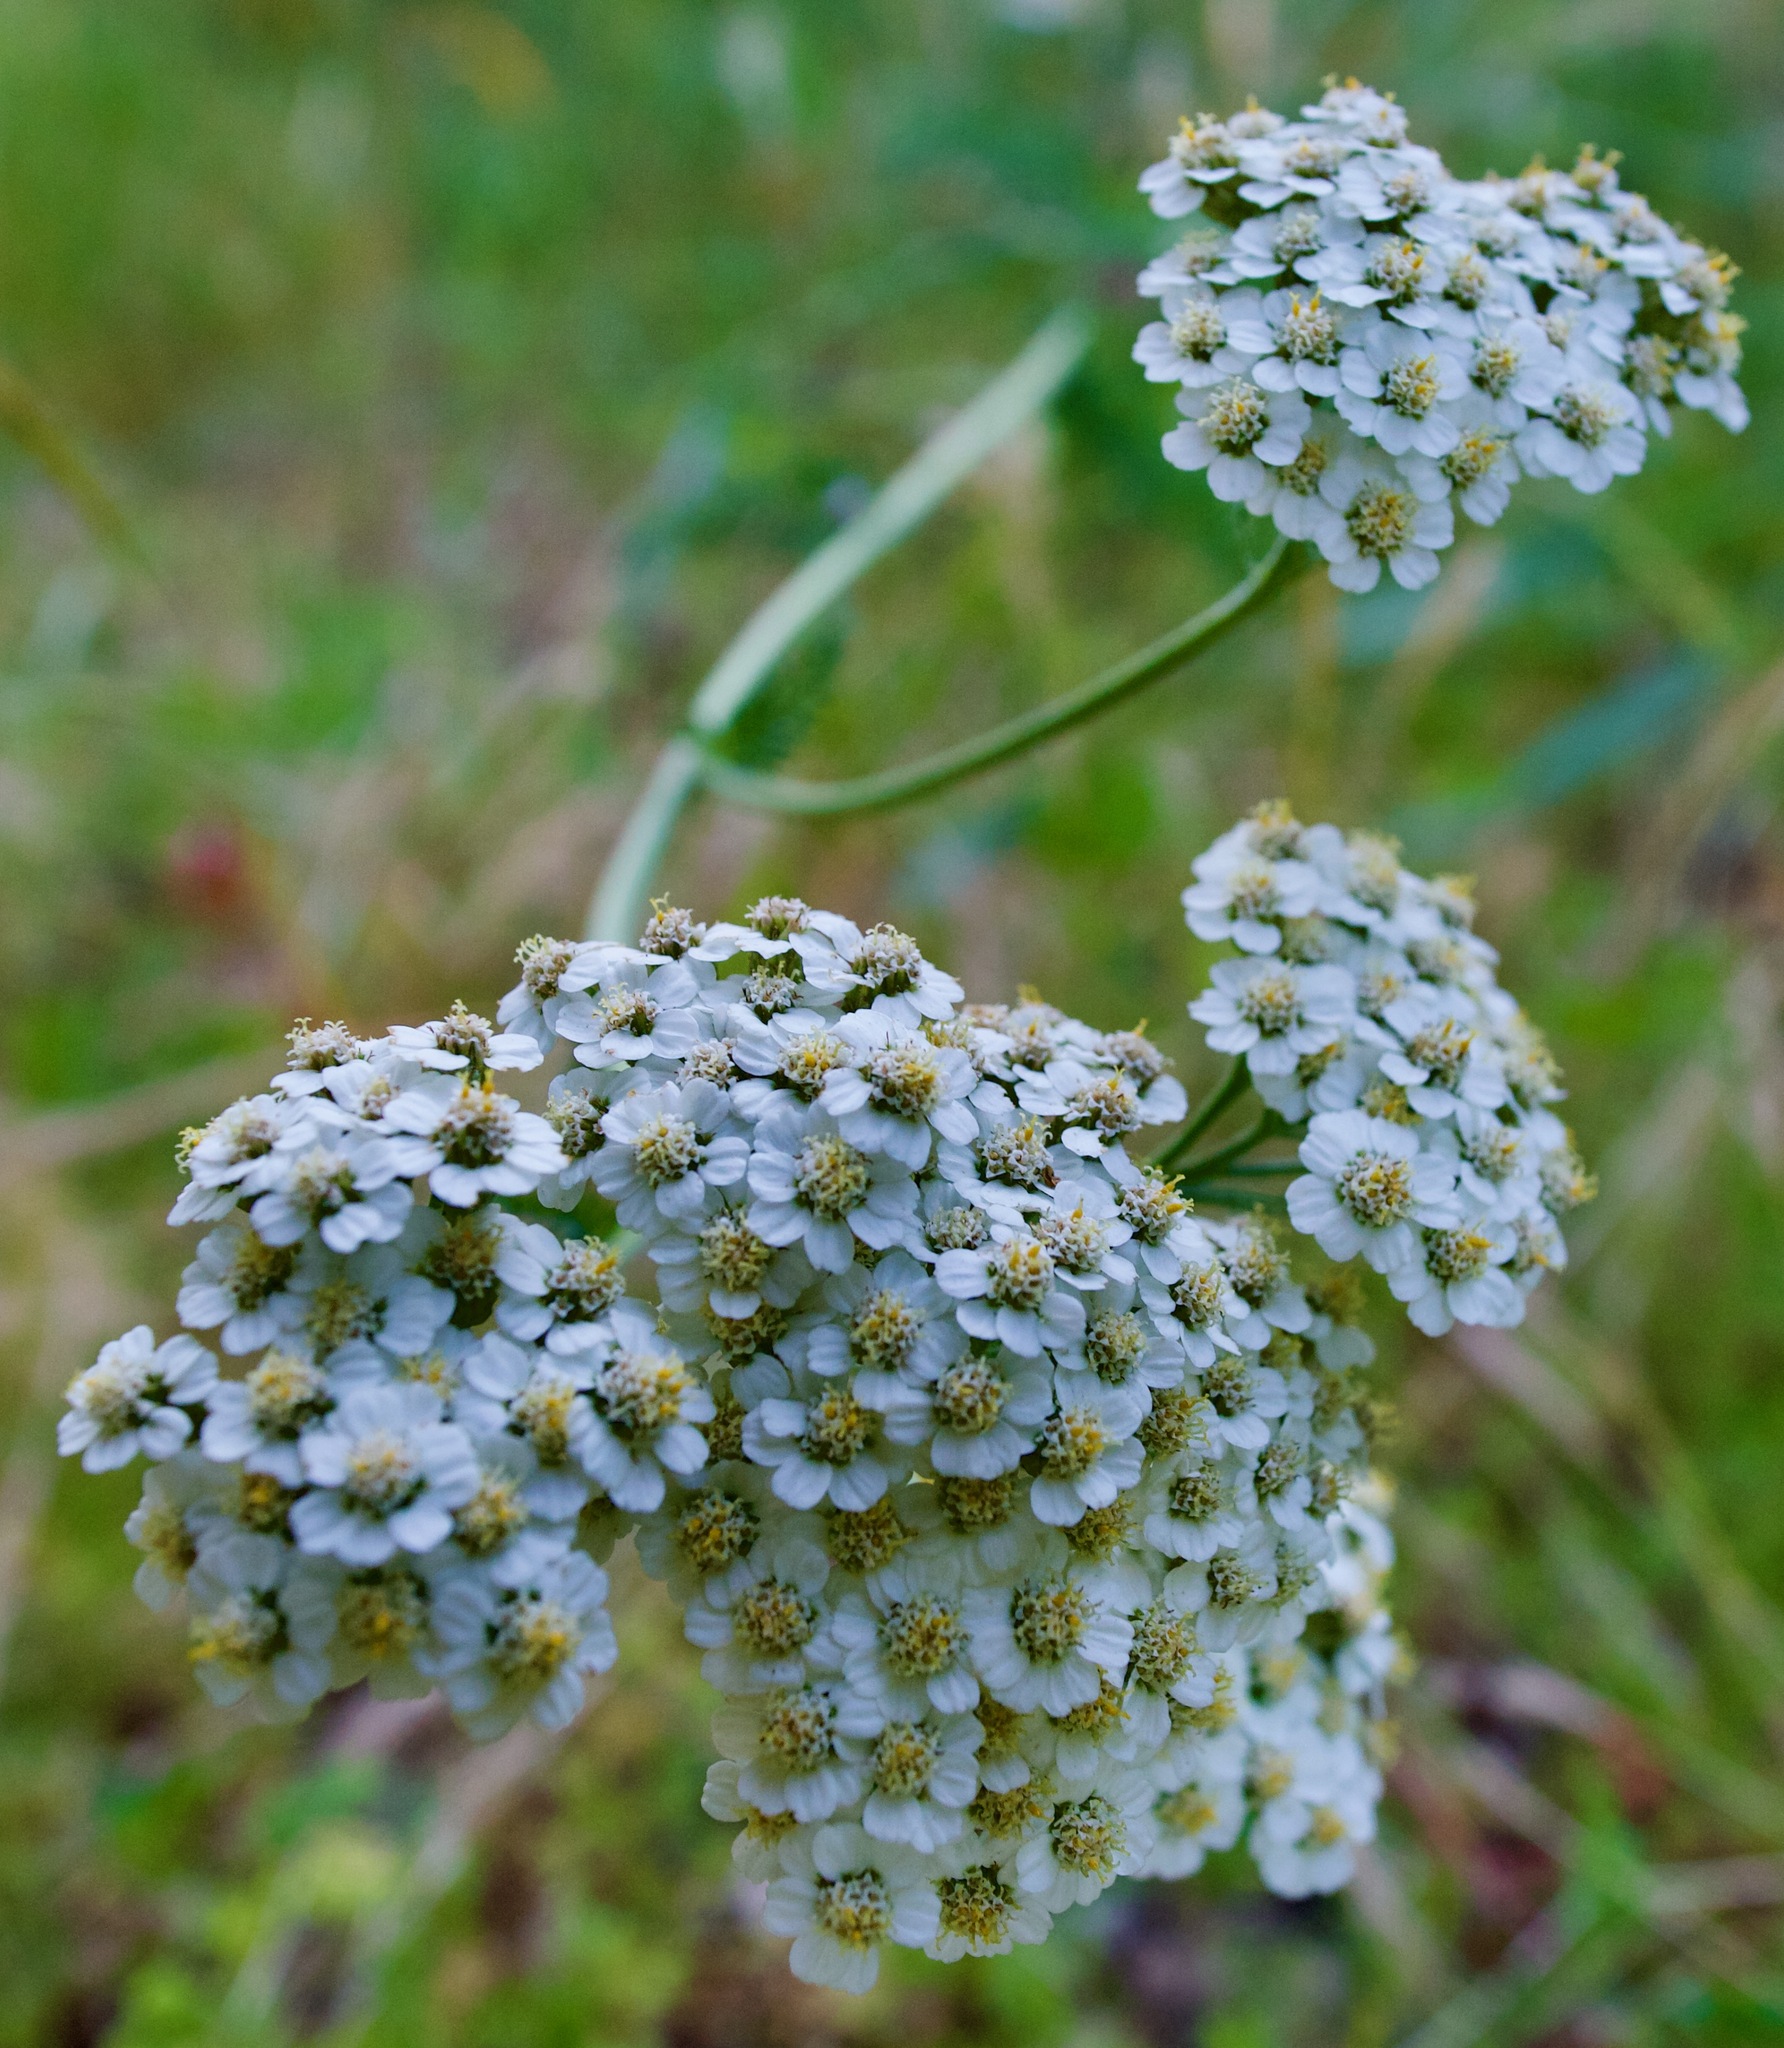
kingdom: Plantae
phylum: Tracheophyta
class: Magnoliopsida
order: Asterales
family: Asteraceae
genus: Achillea
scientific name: Achillea millefolium
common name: Yarrow
